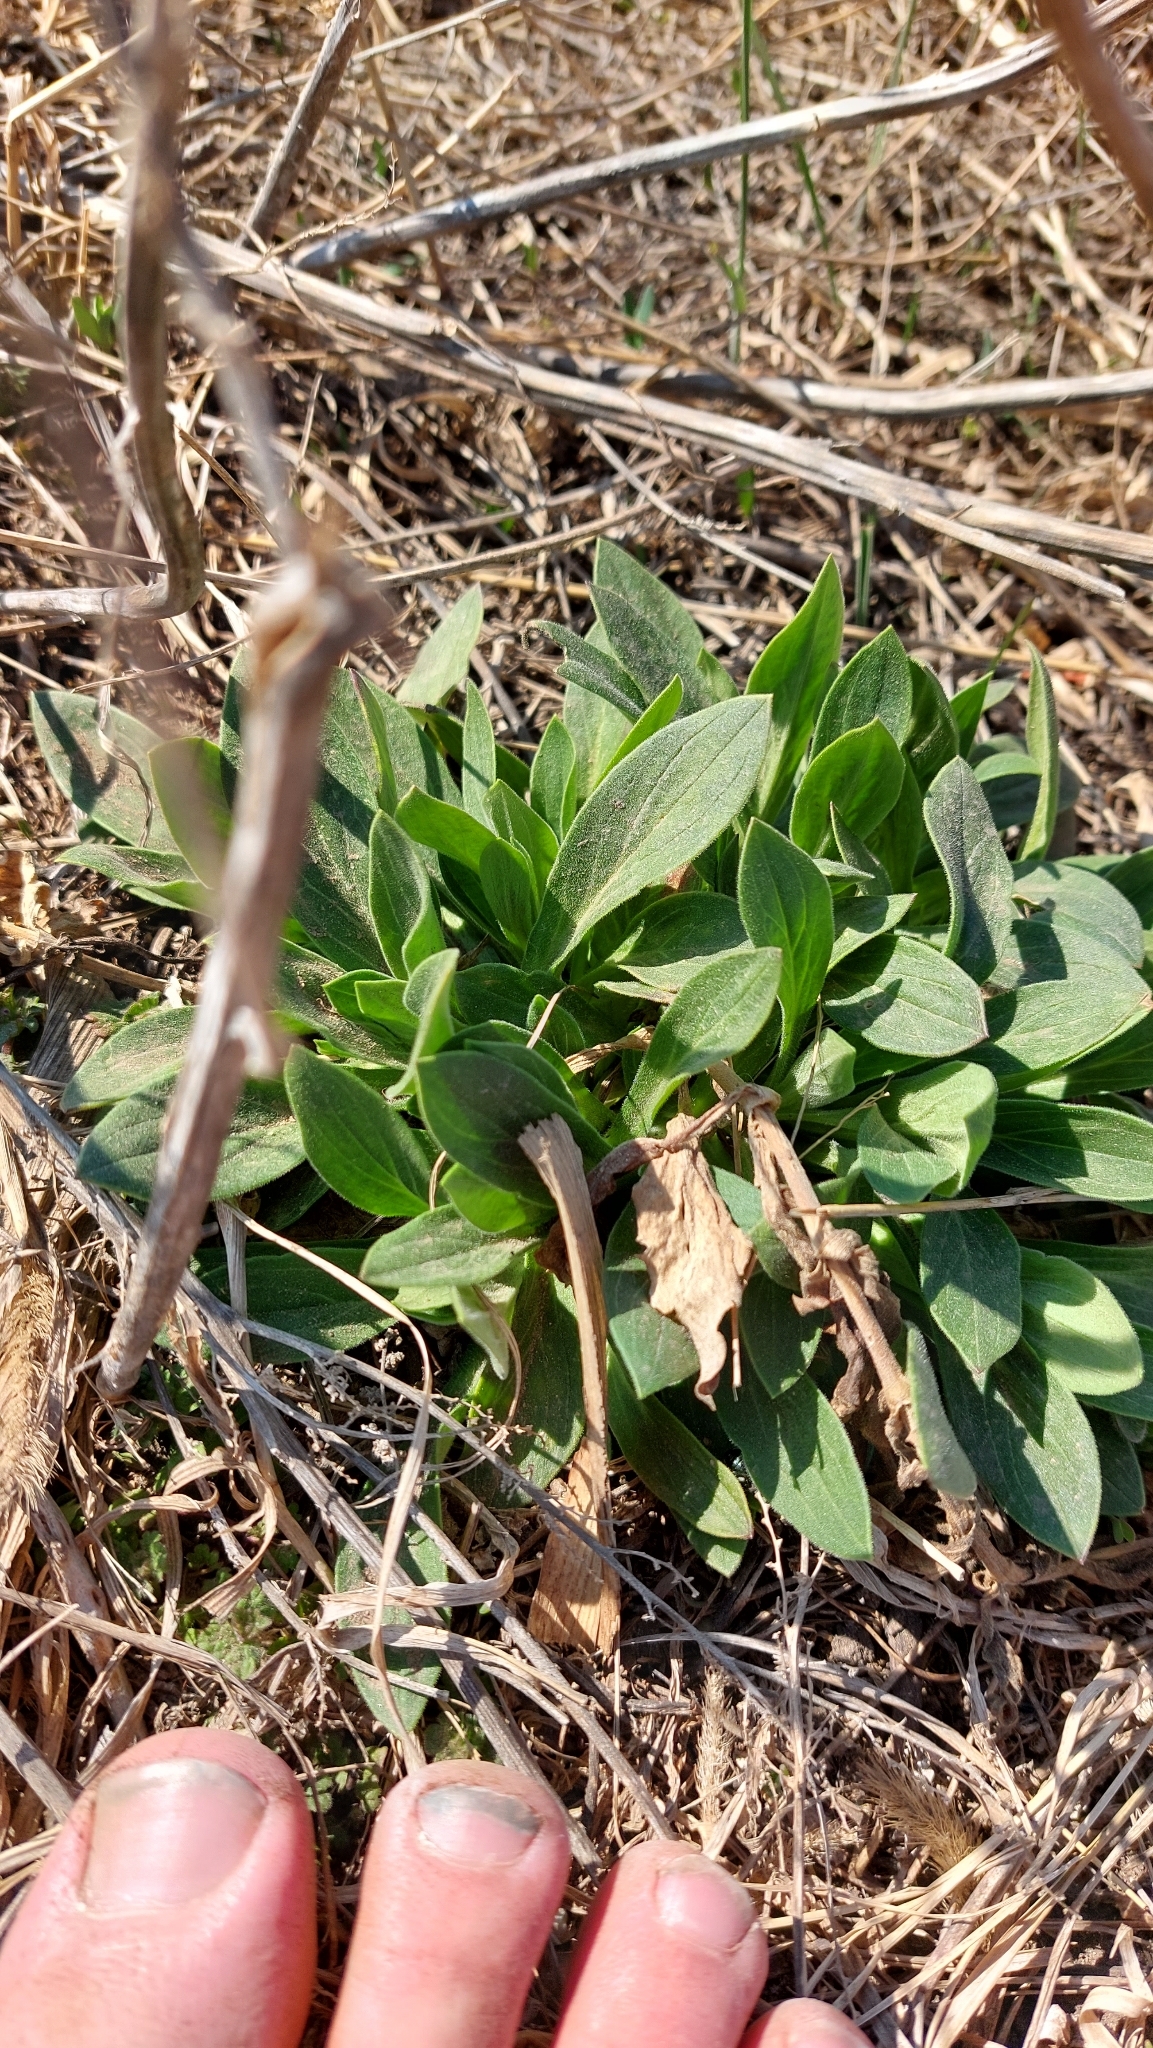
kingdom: Plantae
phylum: Tracheophyta
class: Magnoliopsida
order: Caryophyllales
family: Caryophyllaceae
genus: Silene
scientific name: Silene latifolia
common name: White campion
